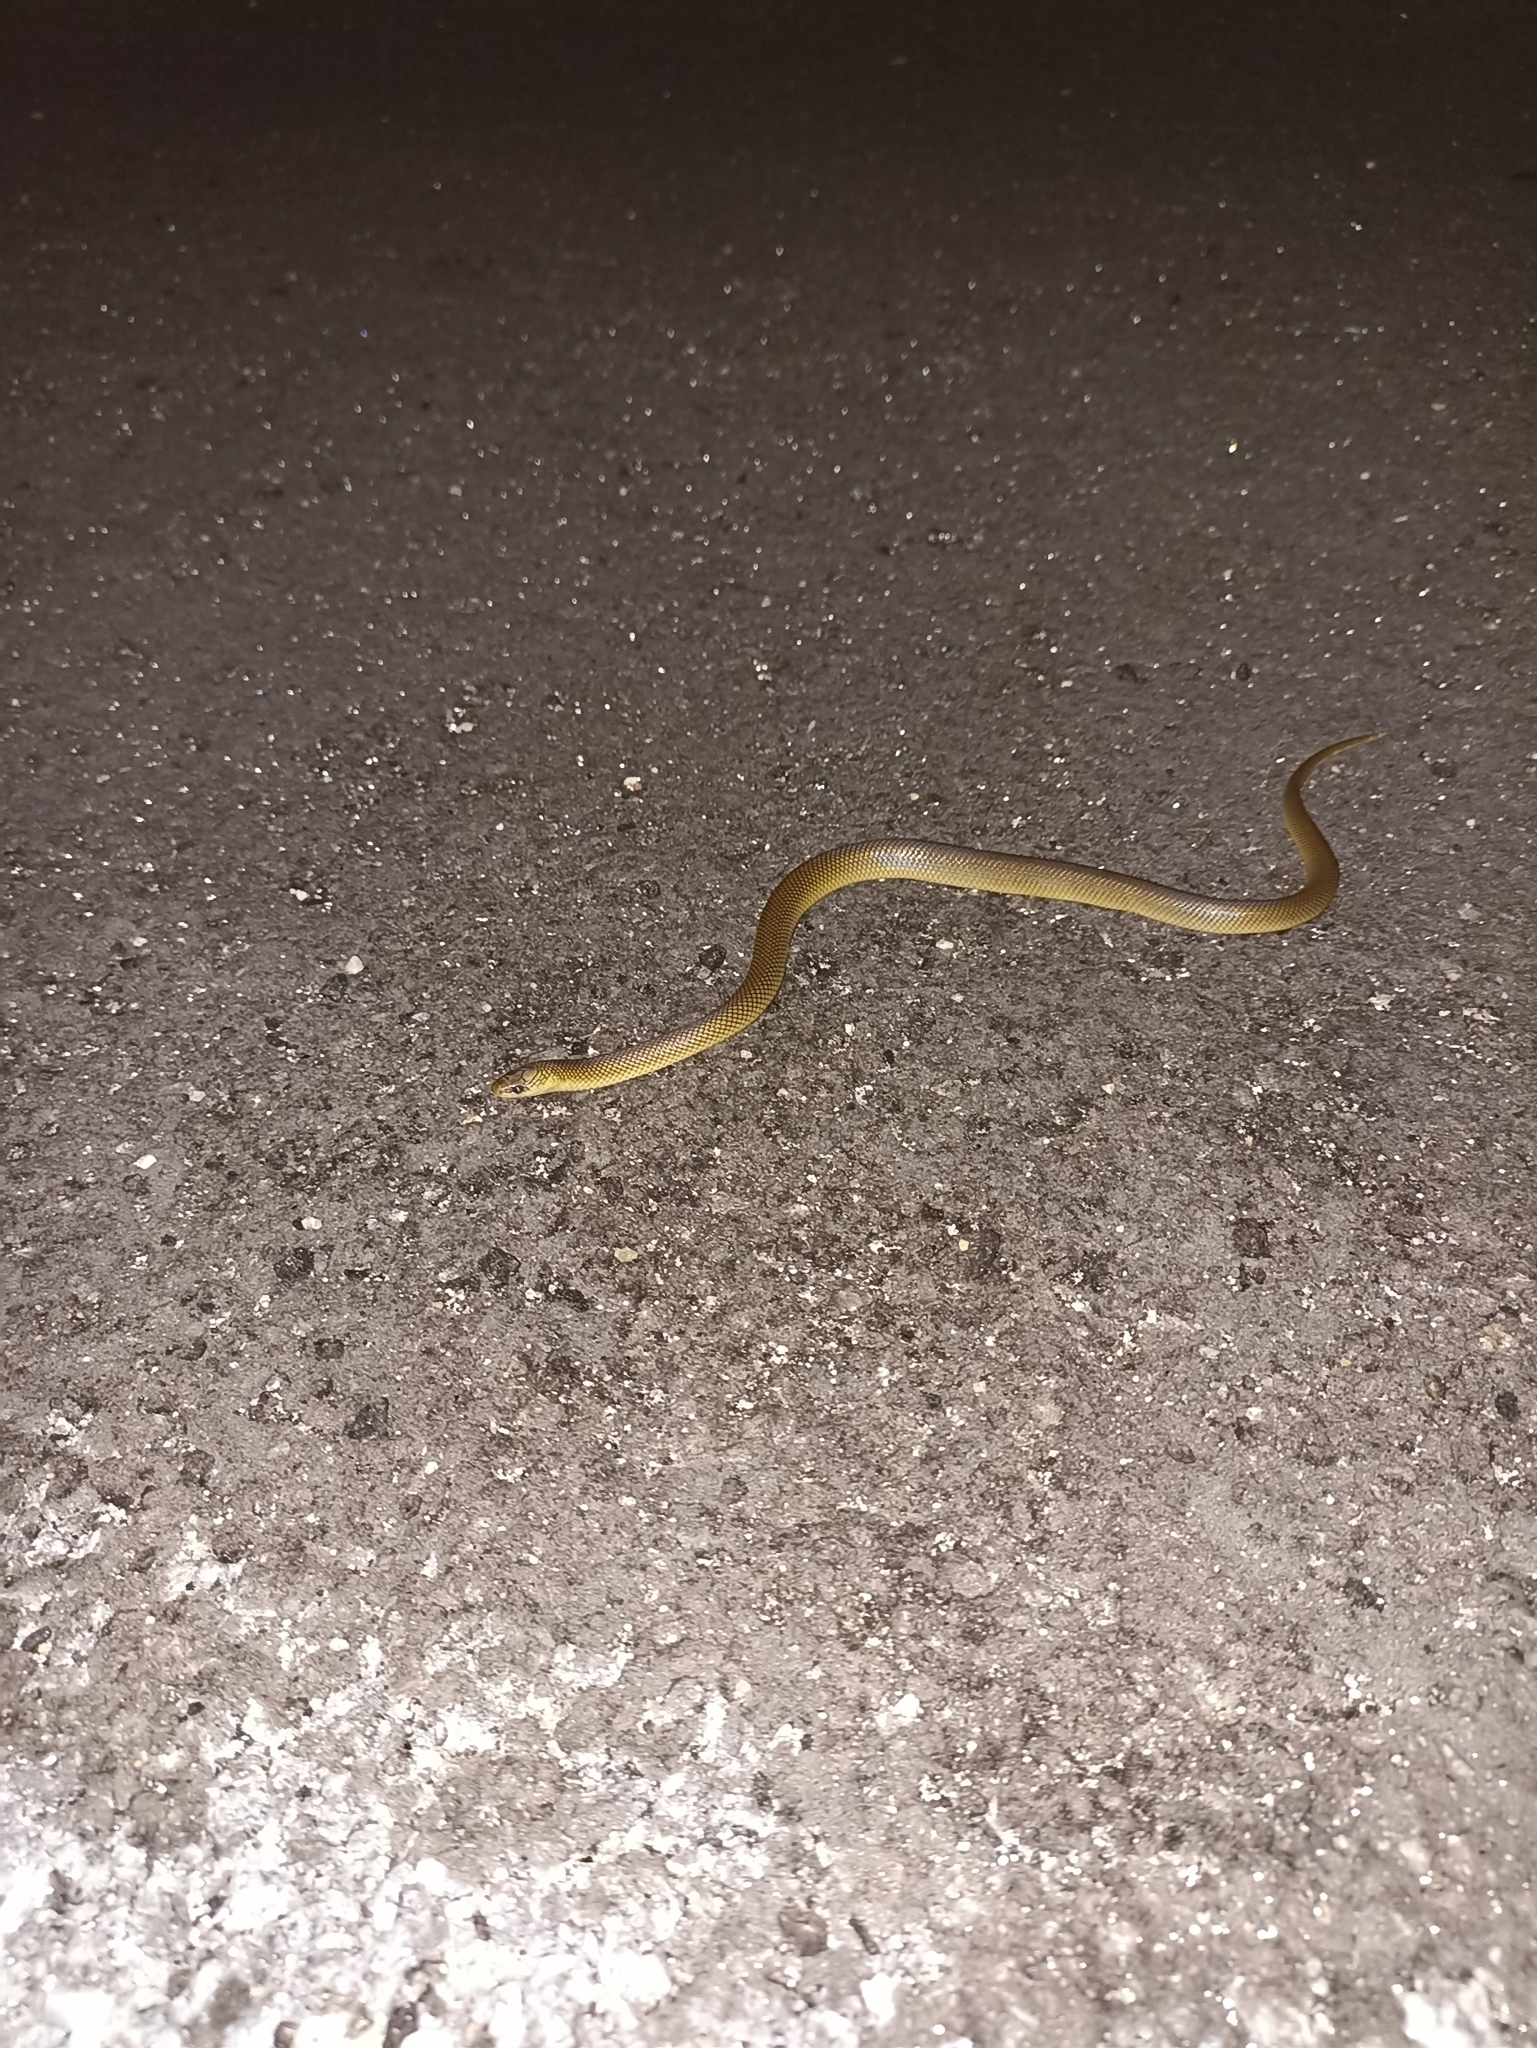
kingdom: Animalia
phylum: Chordata
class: Squamata
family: Colubridae
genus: Erythrolamprus
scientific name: Erythrolamprus semiaureus
